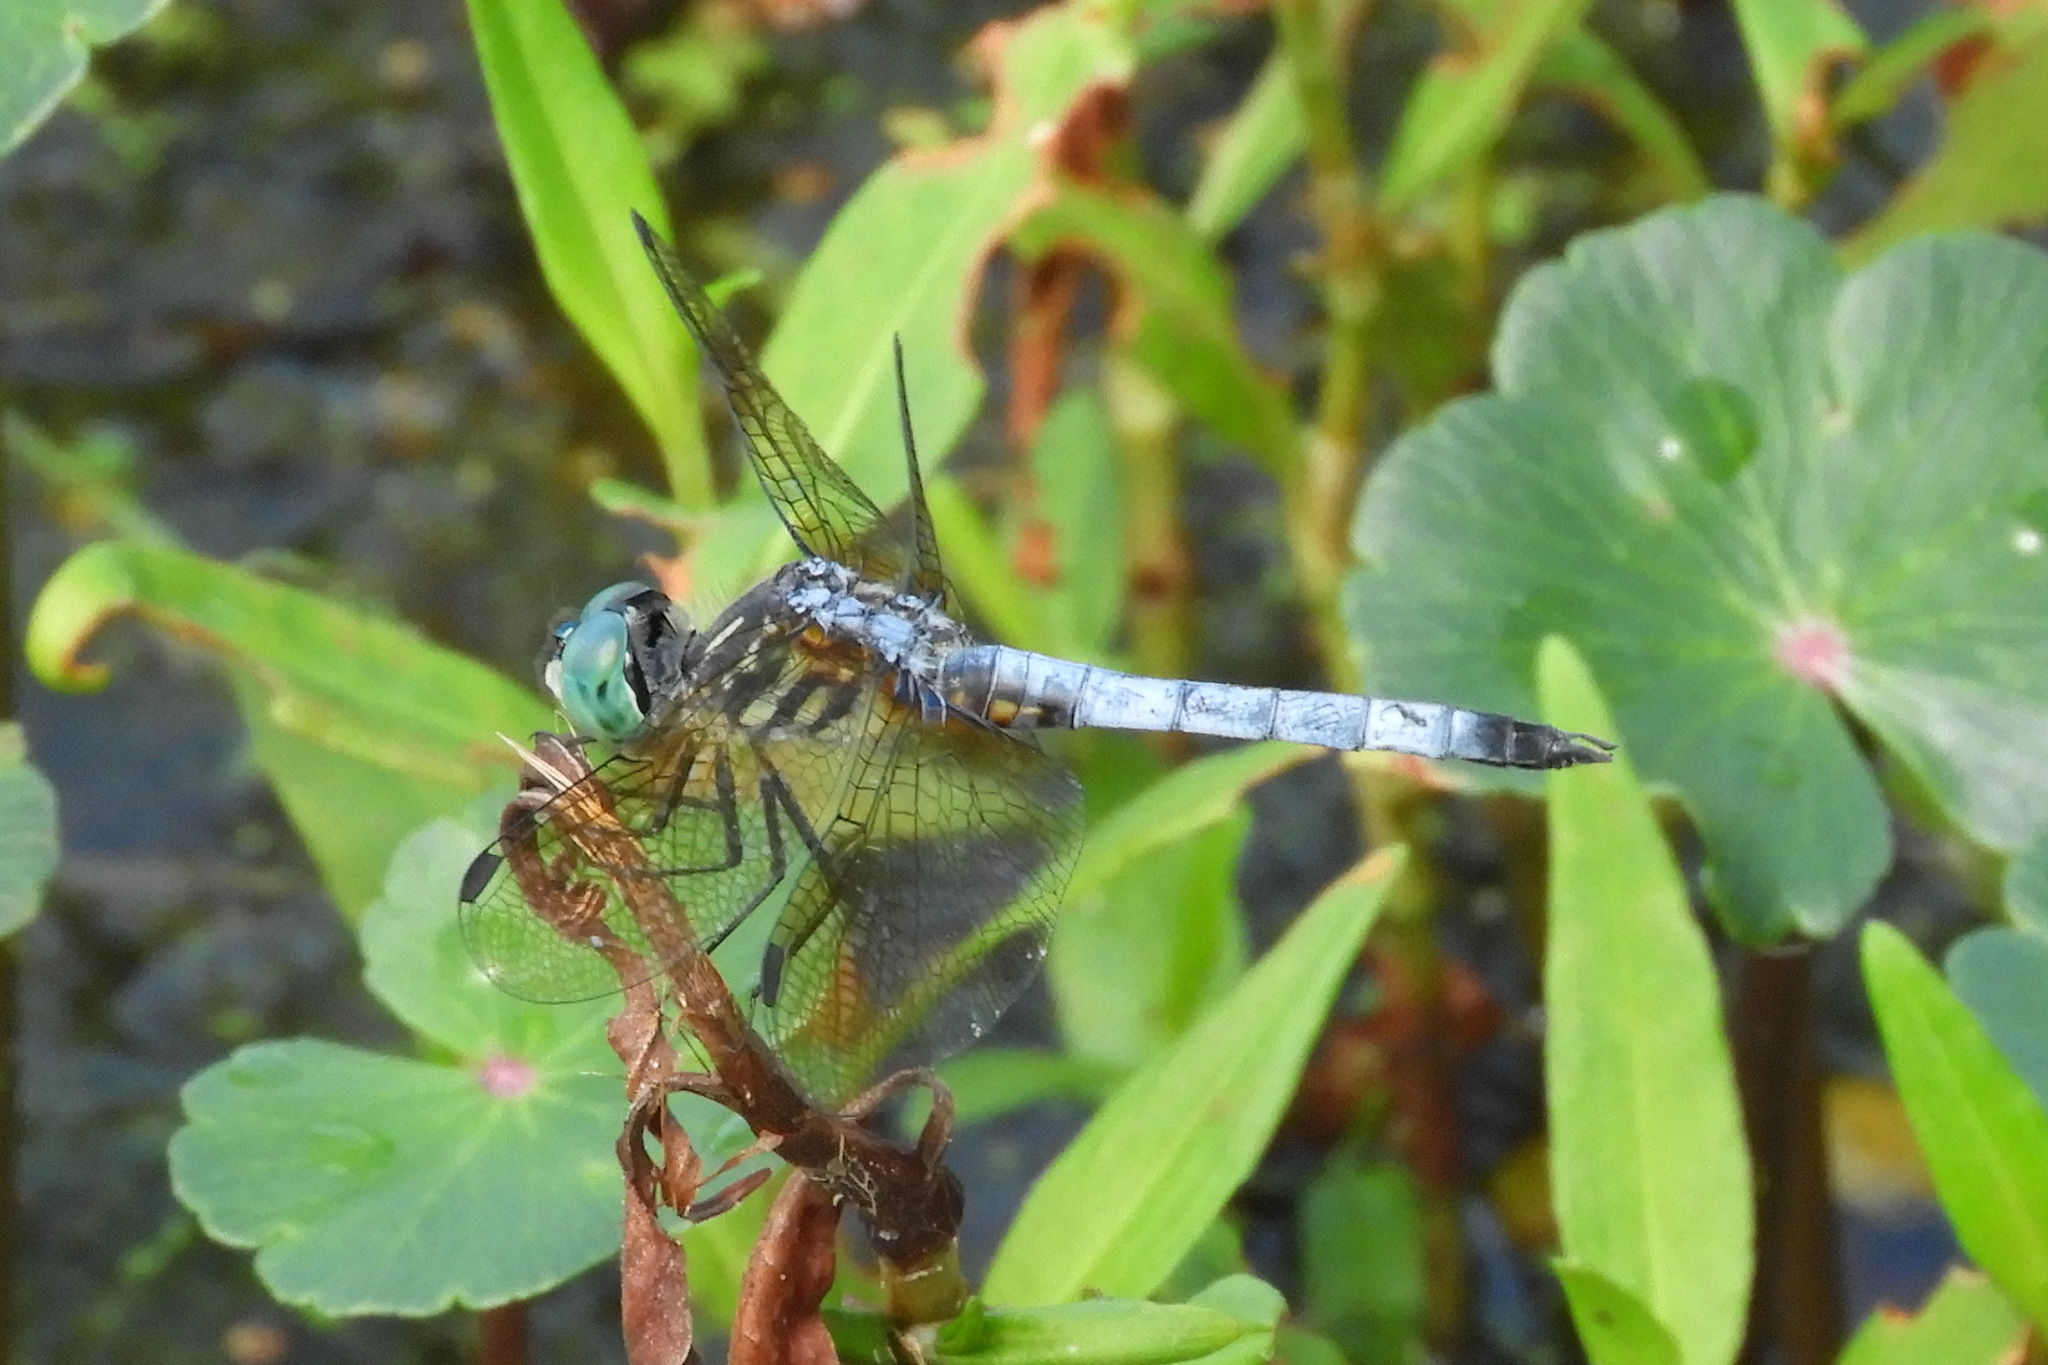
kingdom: Animalia
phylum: Arthropoda
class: Insecta
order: Odonata
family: Libellulidae
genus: Pachydiplax
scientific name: Pachydiplax longipennis
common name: Blue dasher
